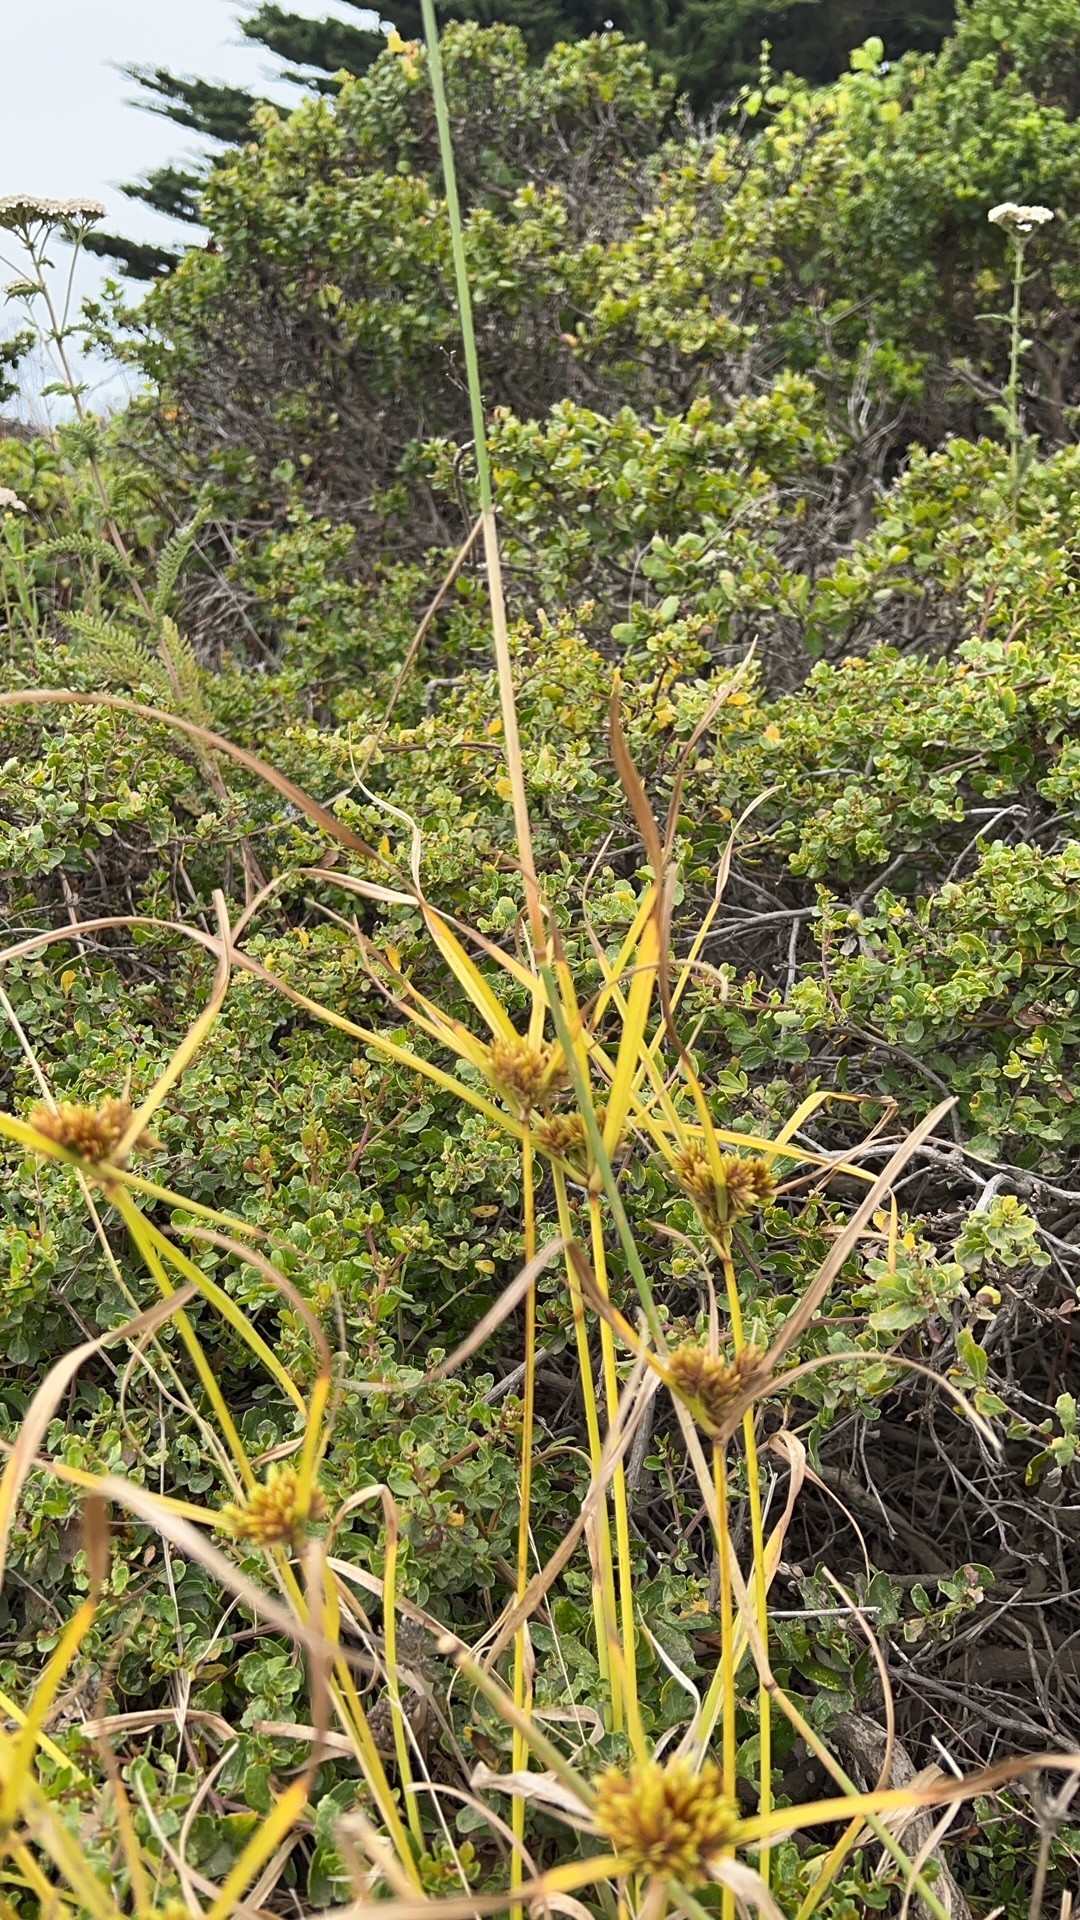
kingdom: Plantae
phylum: Tracheophyta
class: Liliopsida
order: Poales
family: Cyperaceae
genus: Cyperus
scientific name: Cyperus eragrostis
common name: Tall flatsedge
